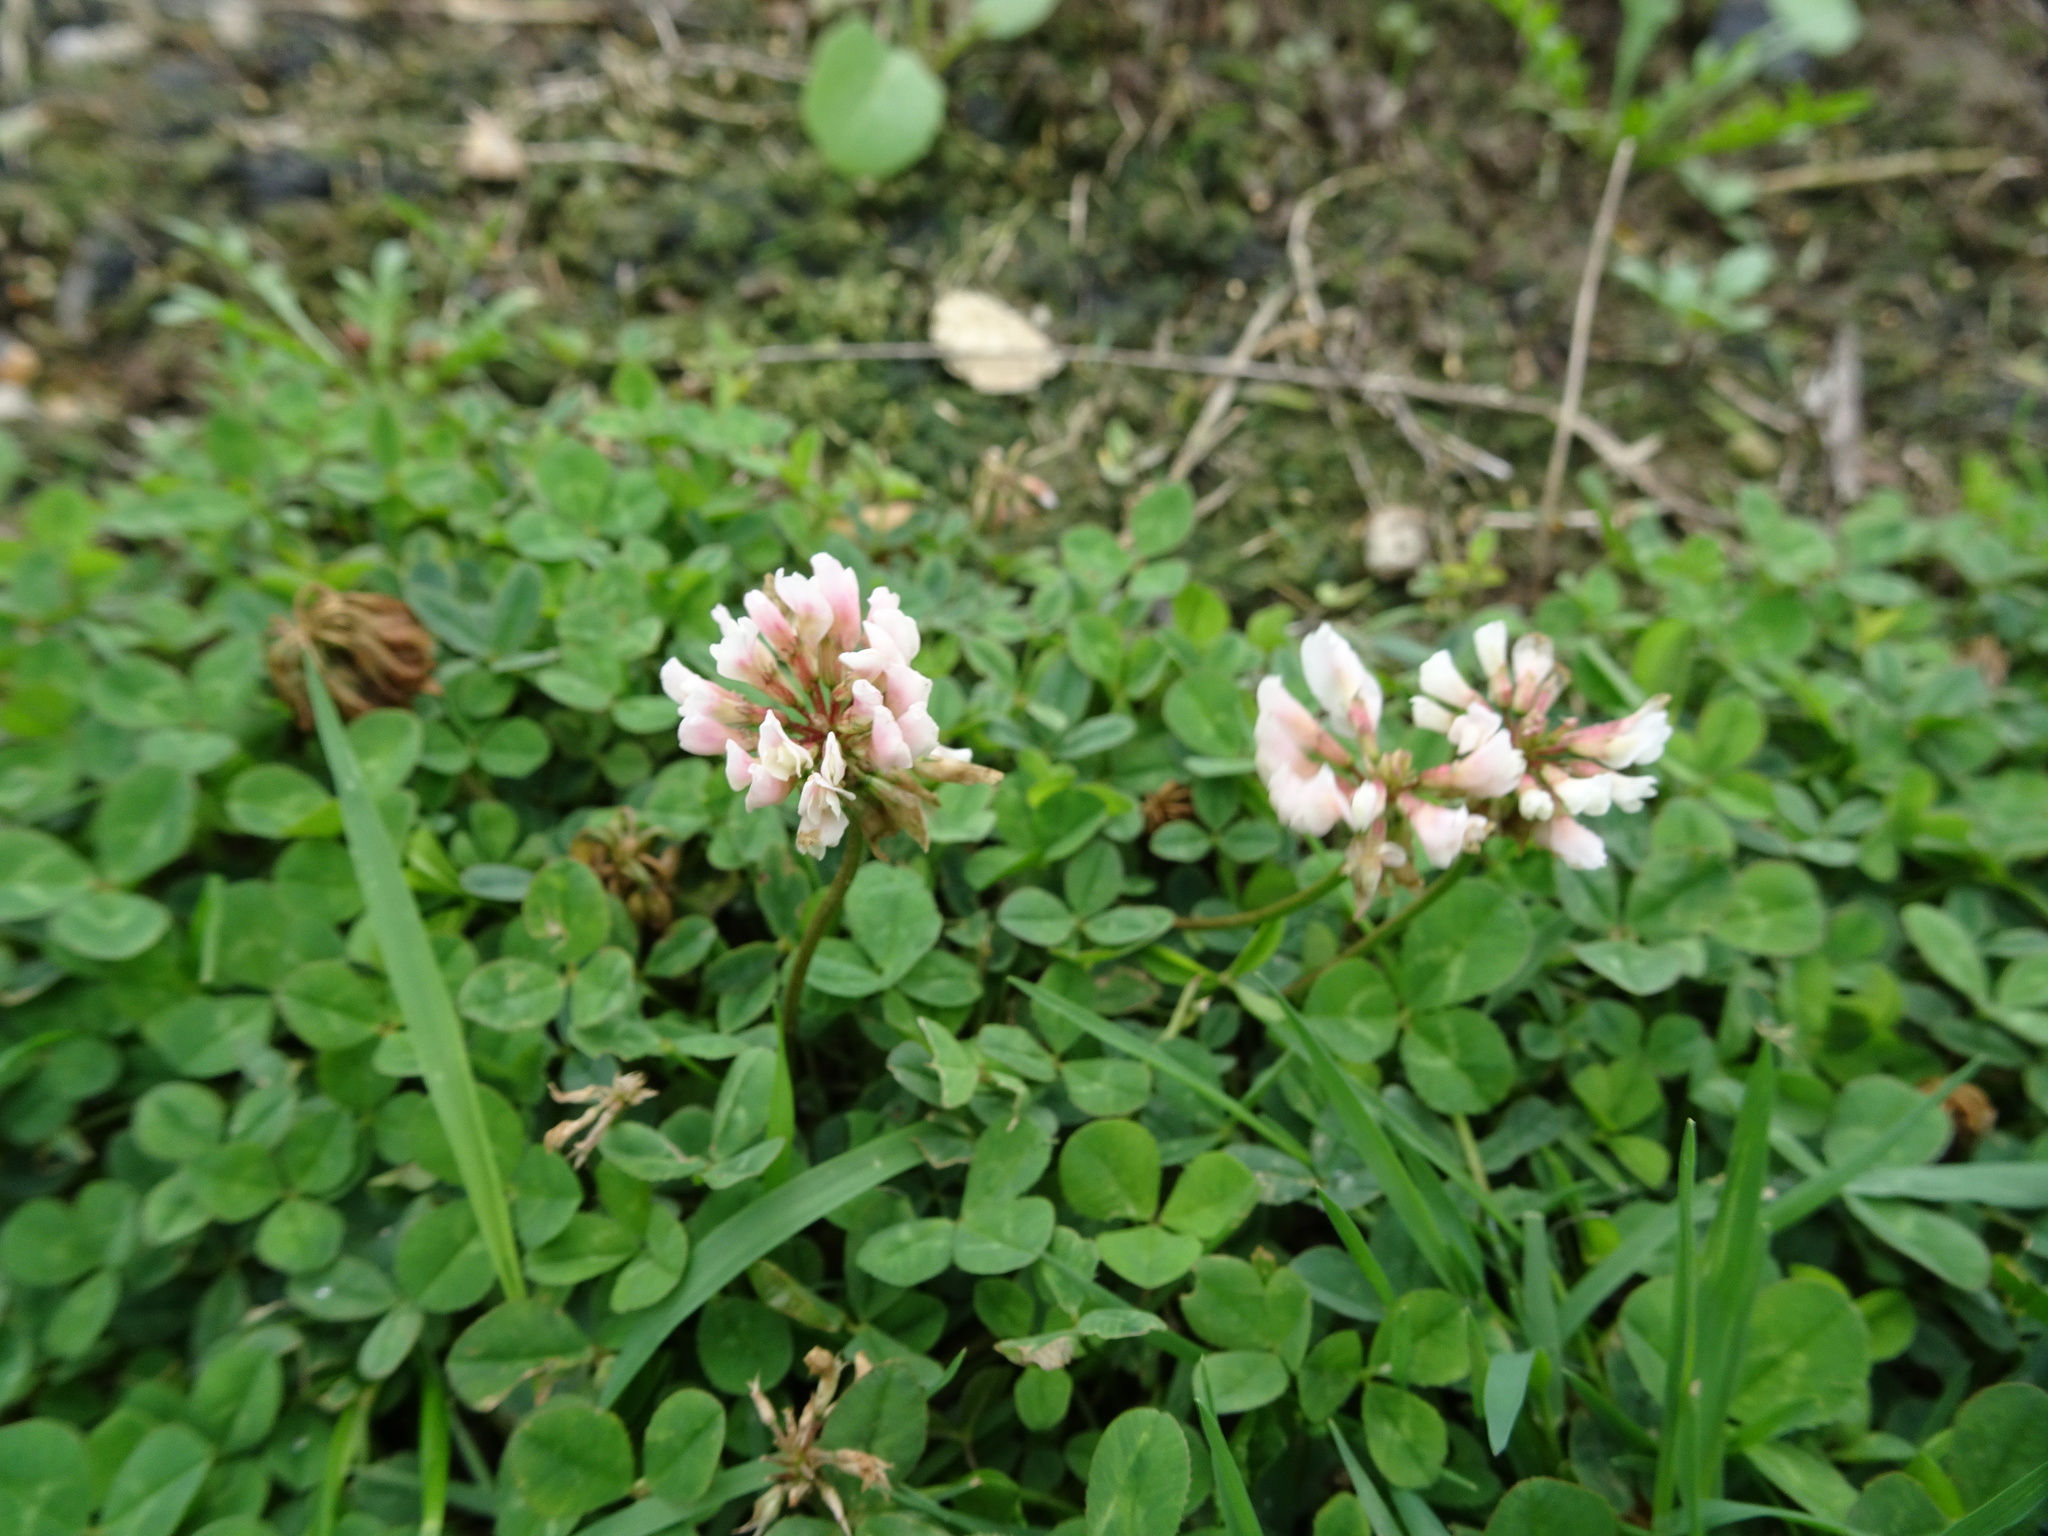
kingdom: Plantae
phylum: Tracheophyta
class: Magnoliopsida
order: Fabales
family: Fabaceae
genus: Trifolium
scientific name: Trifolium repens
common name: White clover
